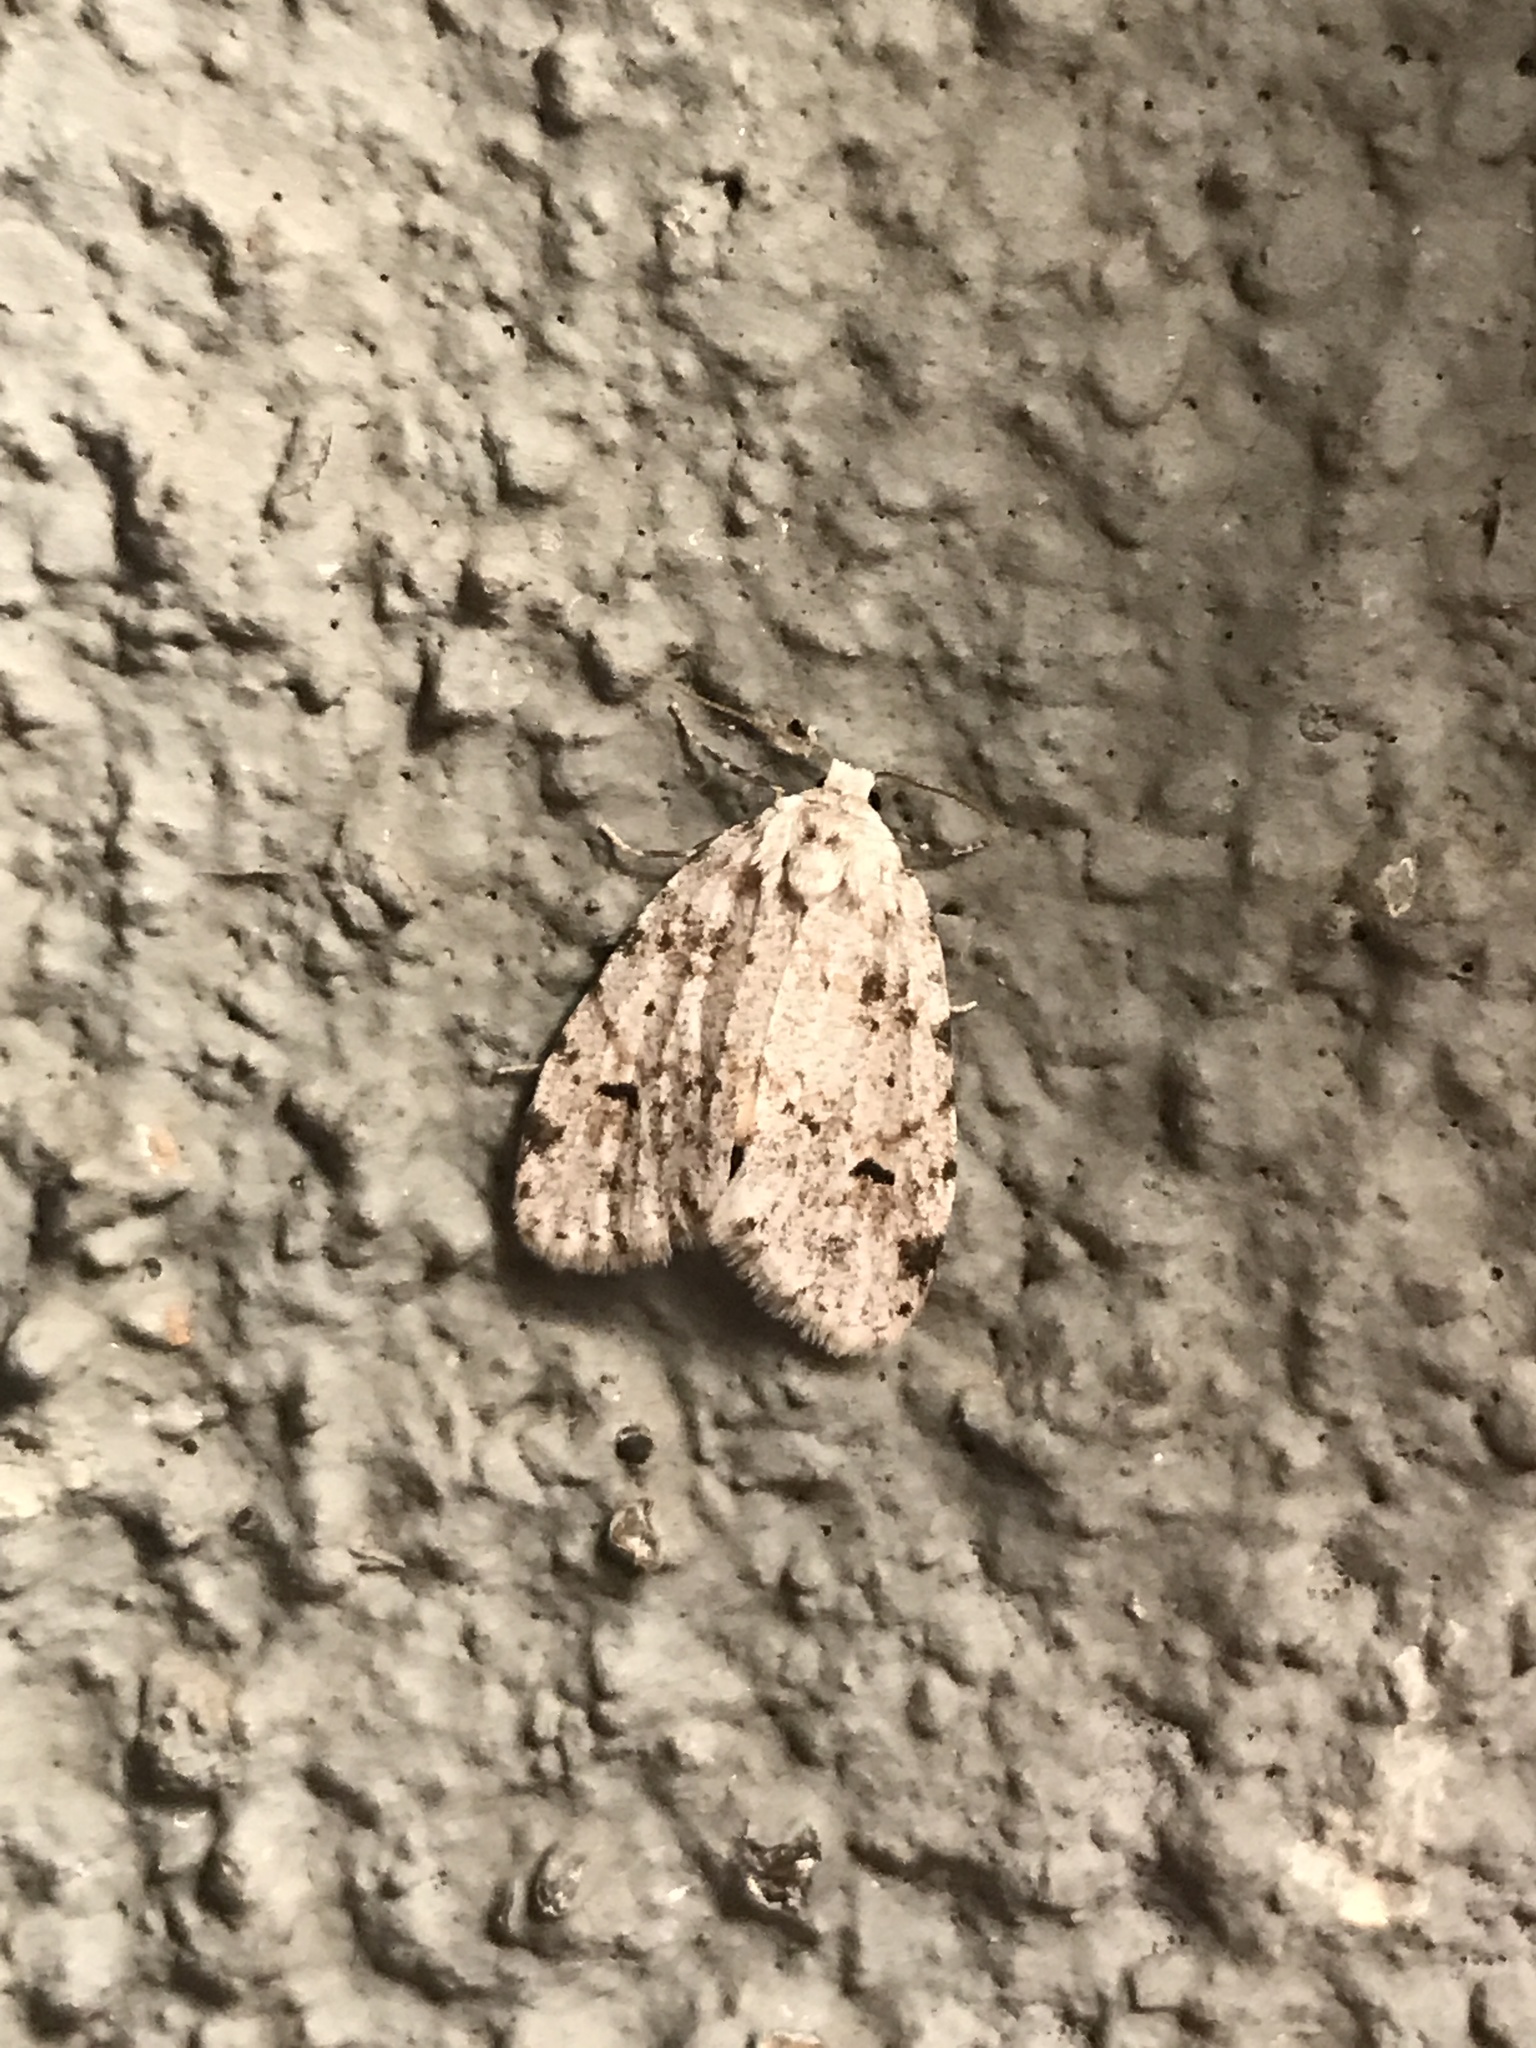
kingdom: Animalia
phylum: Arthropoda
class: Insecta
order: Lepidoptera
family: Erebidae
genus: Clemensia
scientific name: Clemensia albata
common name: Little white lichen moth
